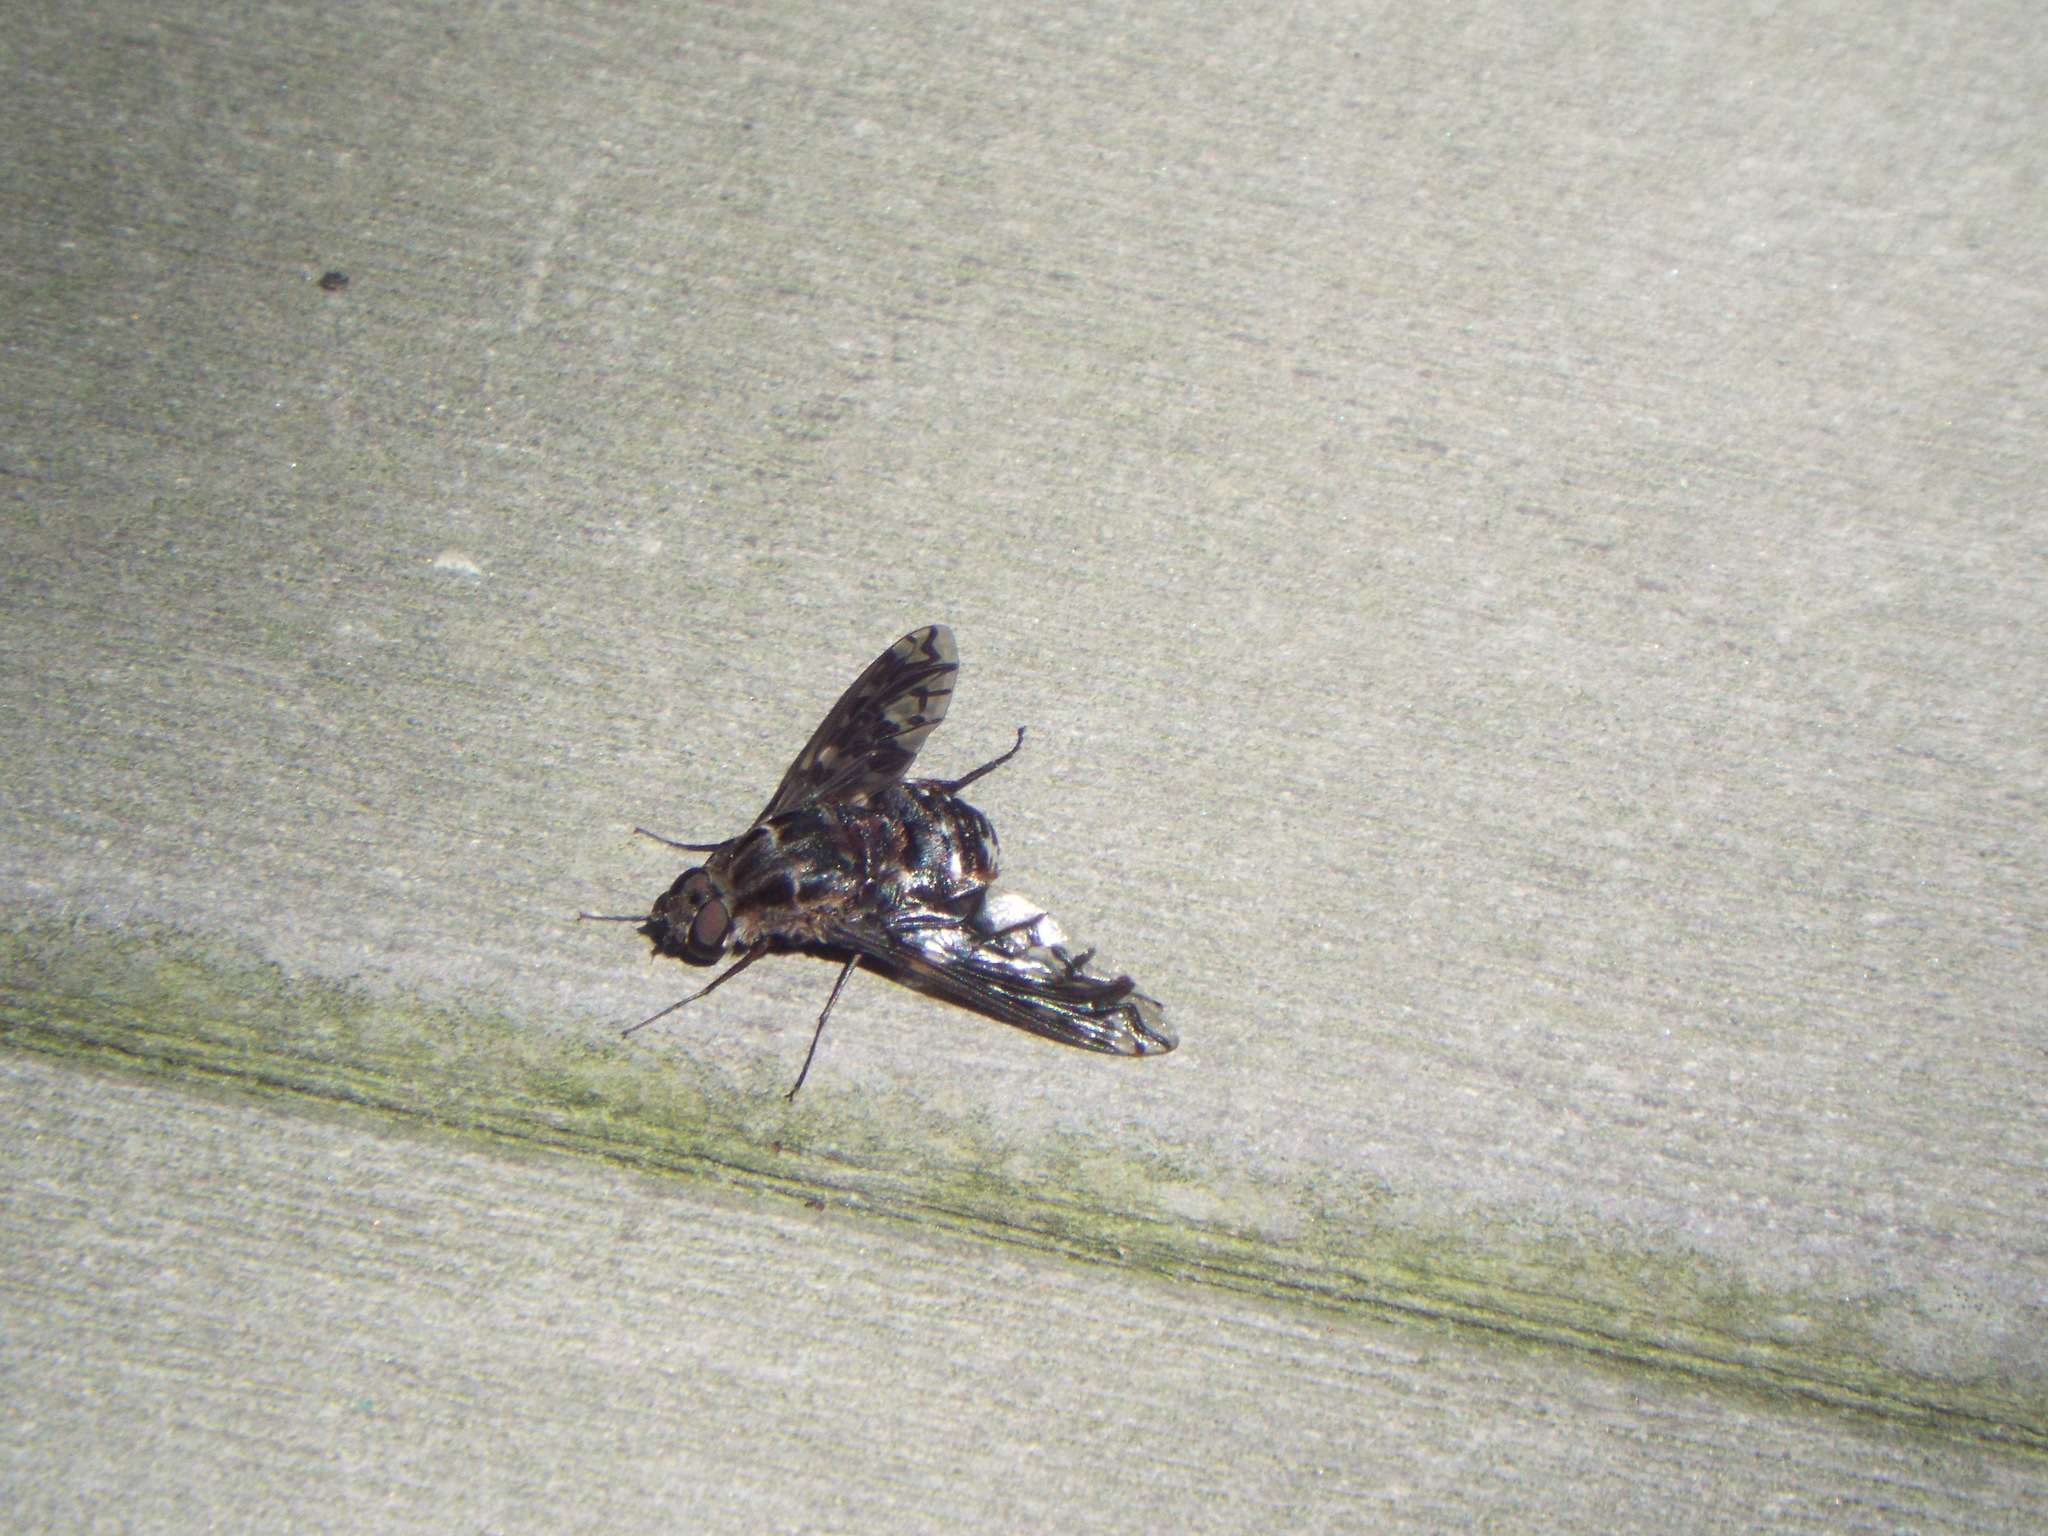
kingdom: Animalia
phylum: Arthropoda
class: Insecta
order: Diptera
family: Bombyliidae
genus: Xenox
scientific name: Xenox tigrinus
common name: Tiger bee fly
